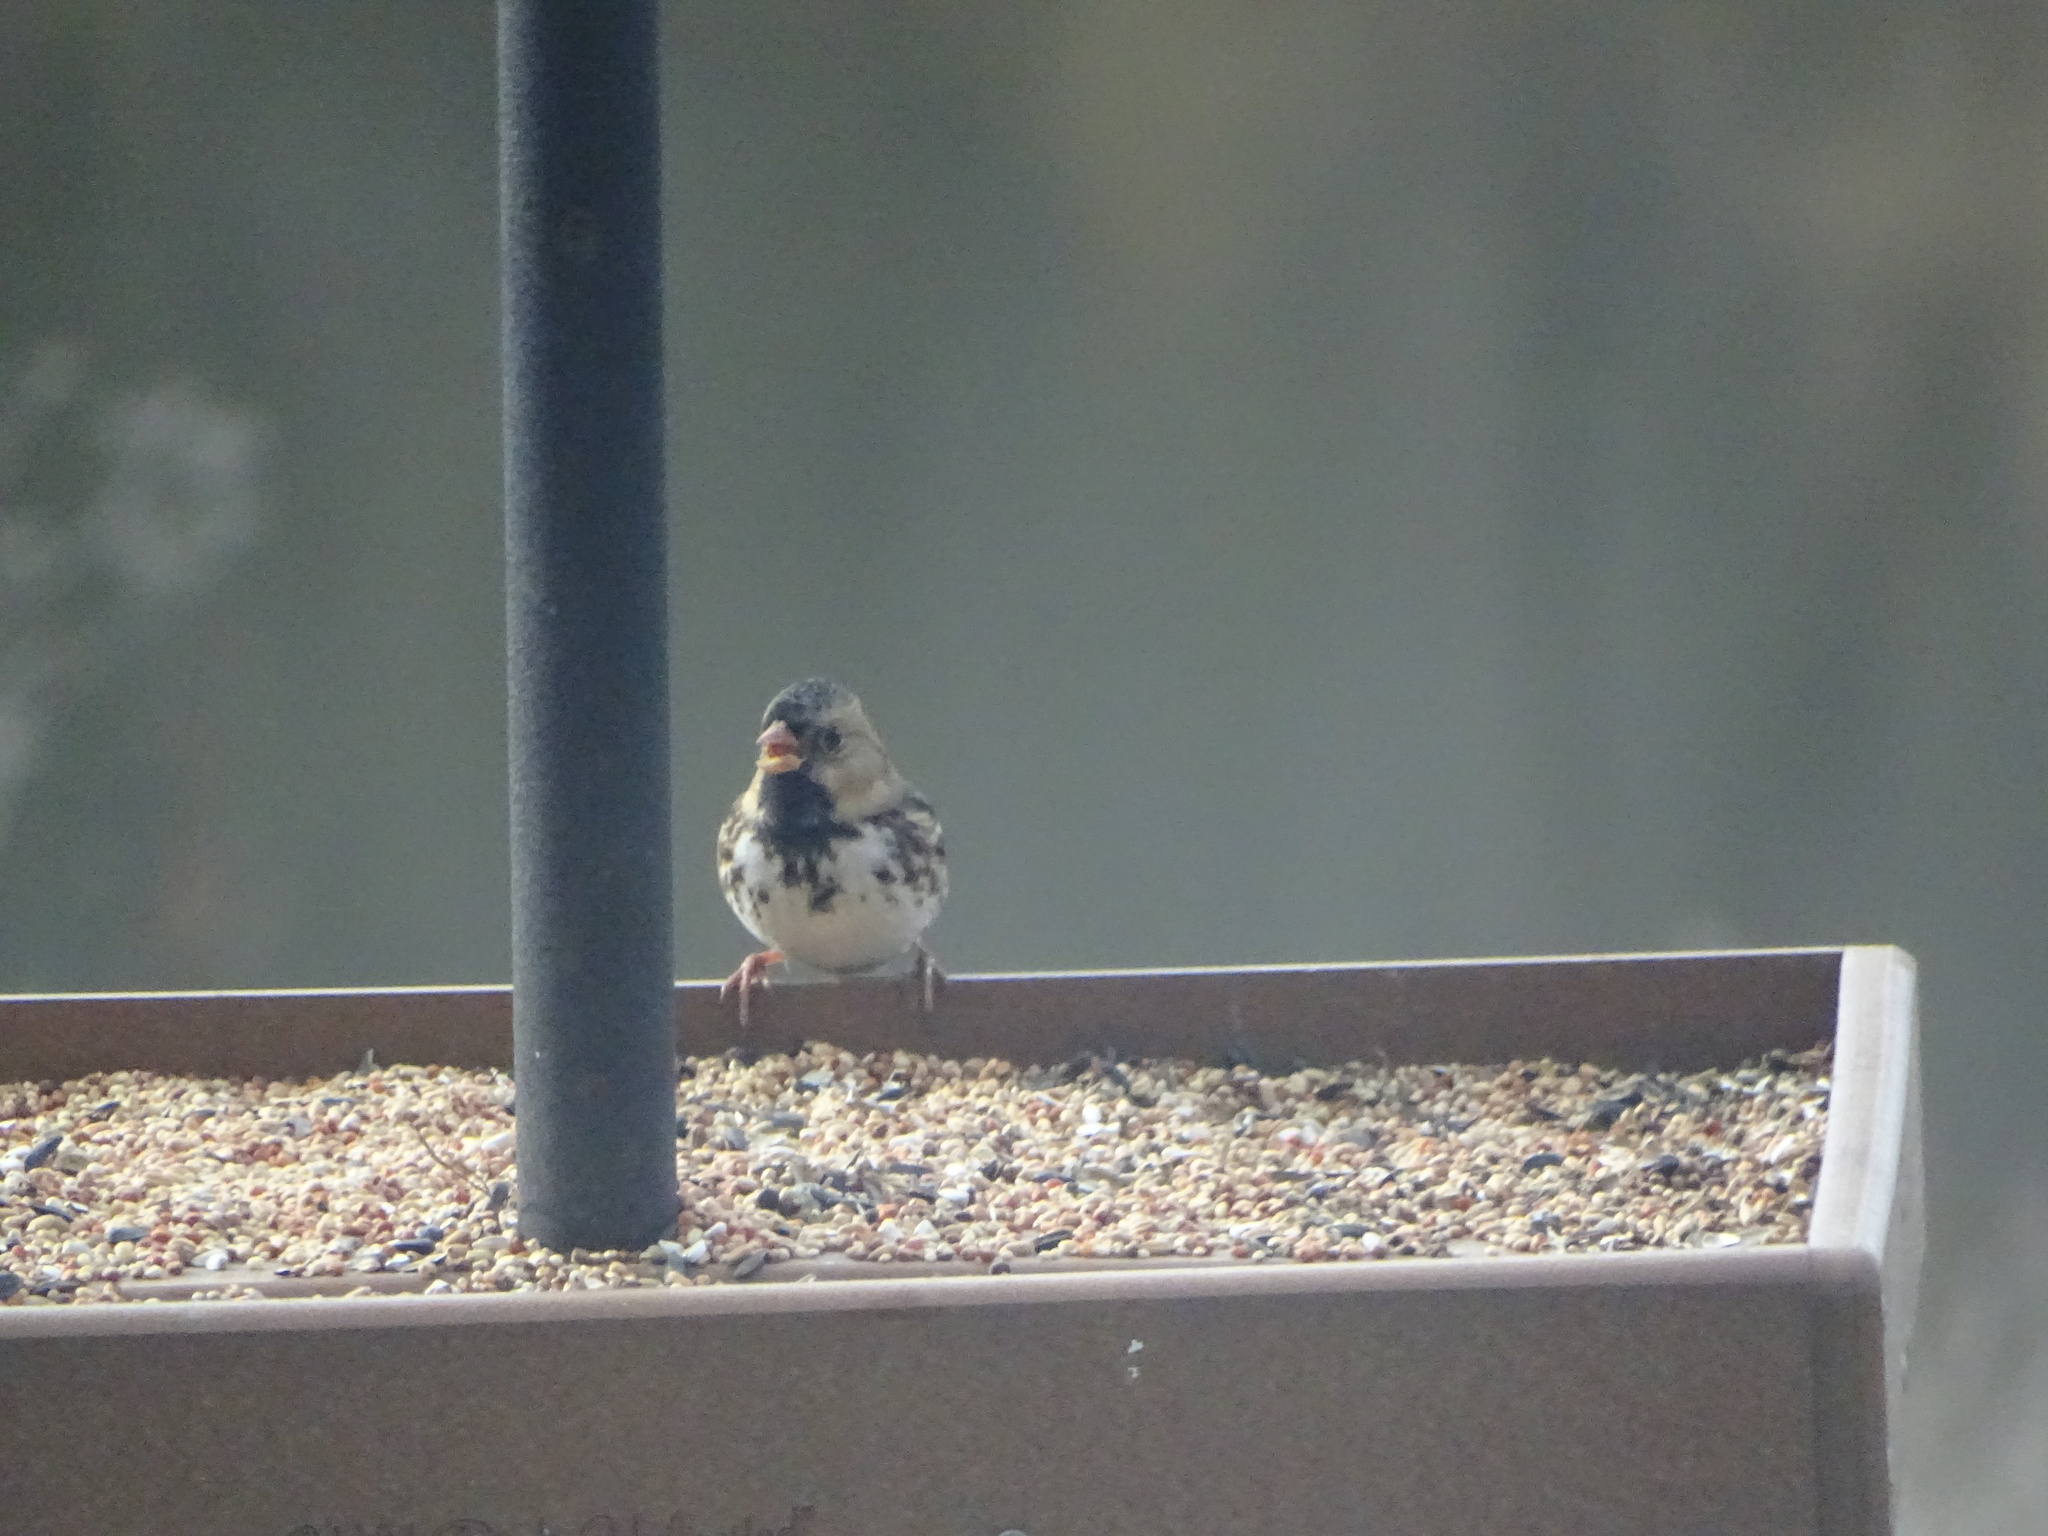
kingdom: Animalia
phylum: Chordata
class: Aves
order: Passeriformes
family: Passerellidae
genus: Zonotrichia
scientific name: Zonotrichia querula
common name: Harris's sparrow
